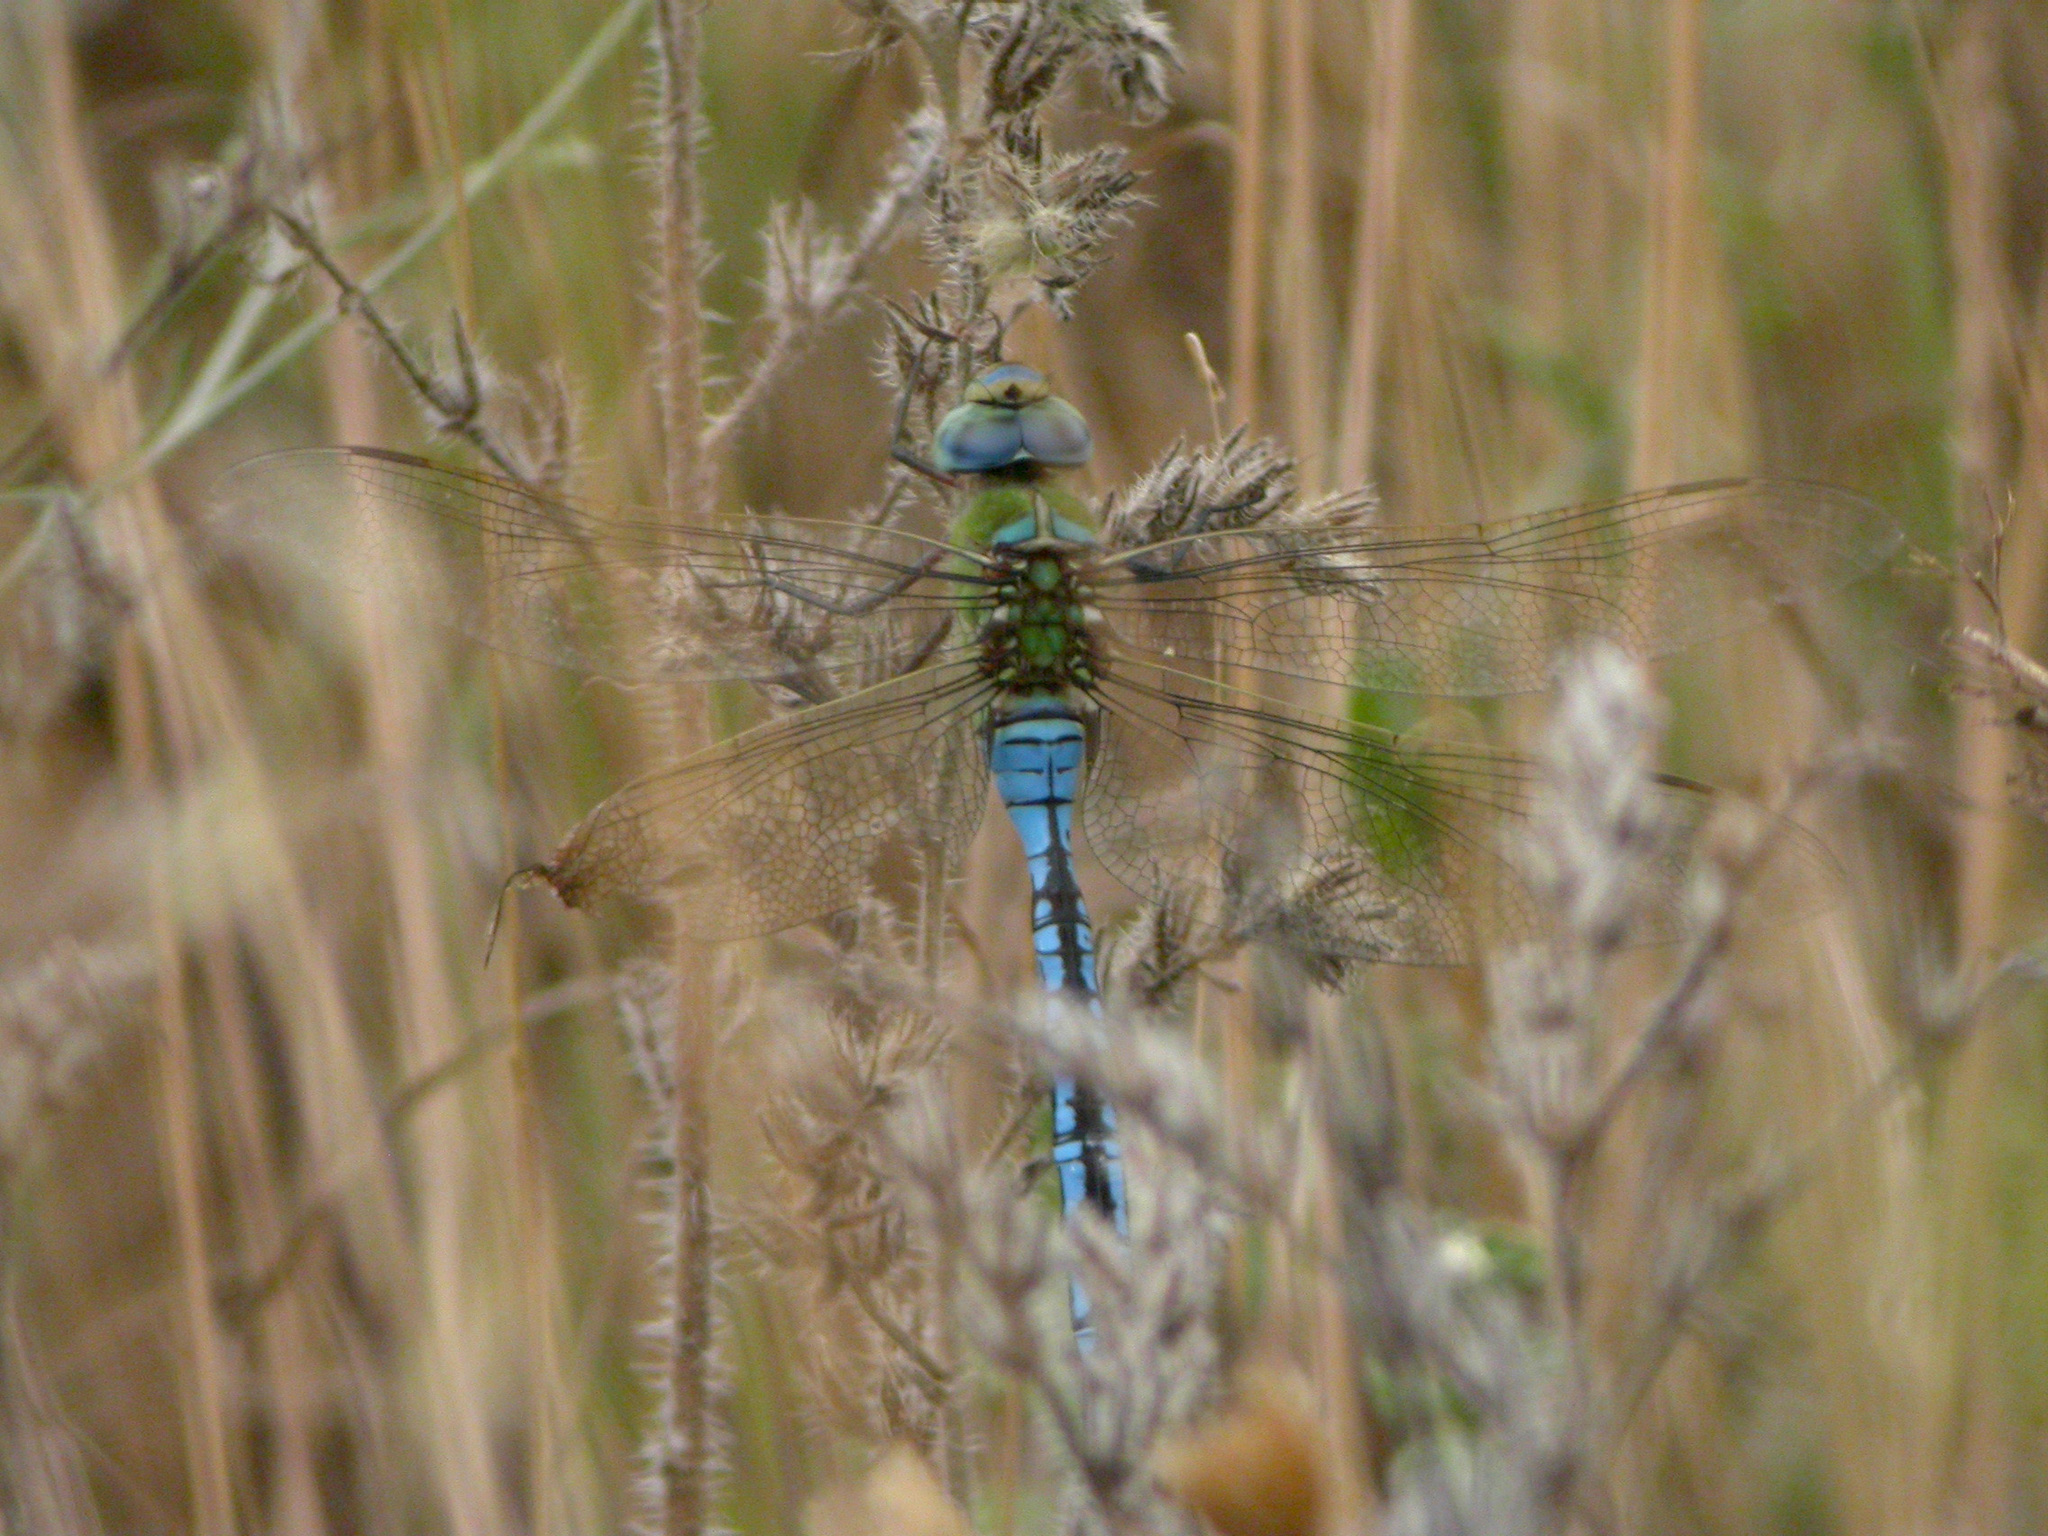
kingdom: Animalia
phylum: Arthropoda
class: Insecta
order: Odonata
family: Aeshnidae
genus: Anax
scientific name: Anax imperator
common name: Emperor dragonfly
